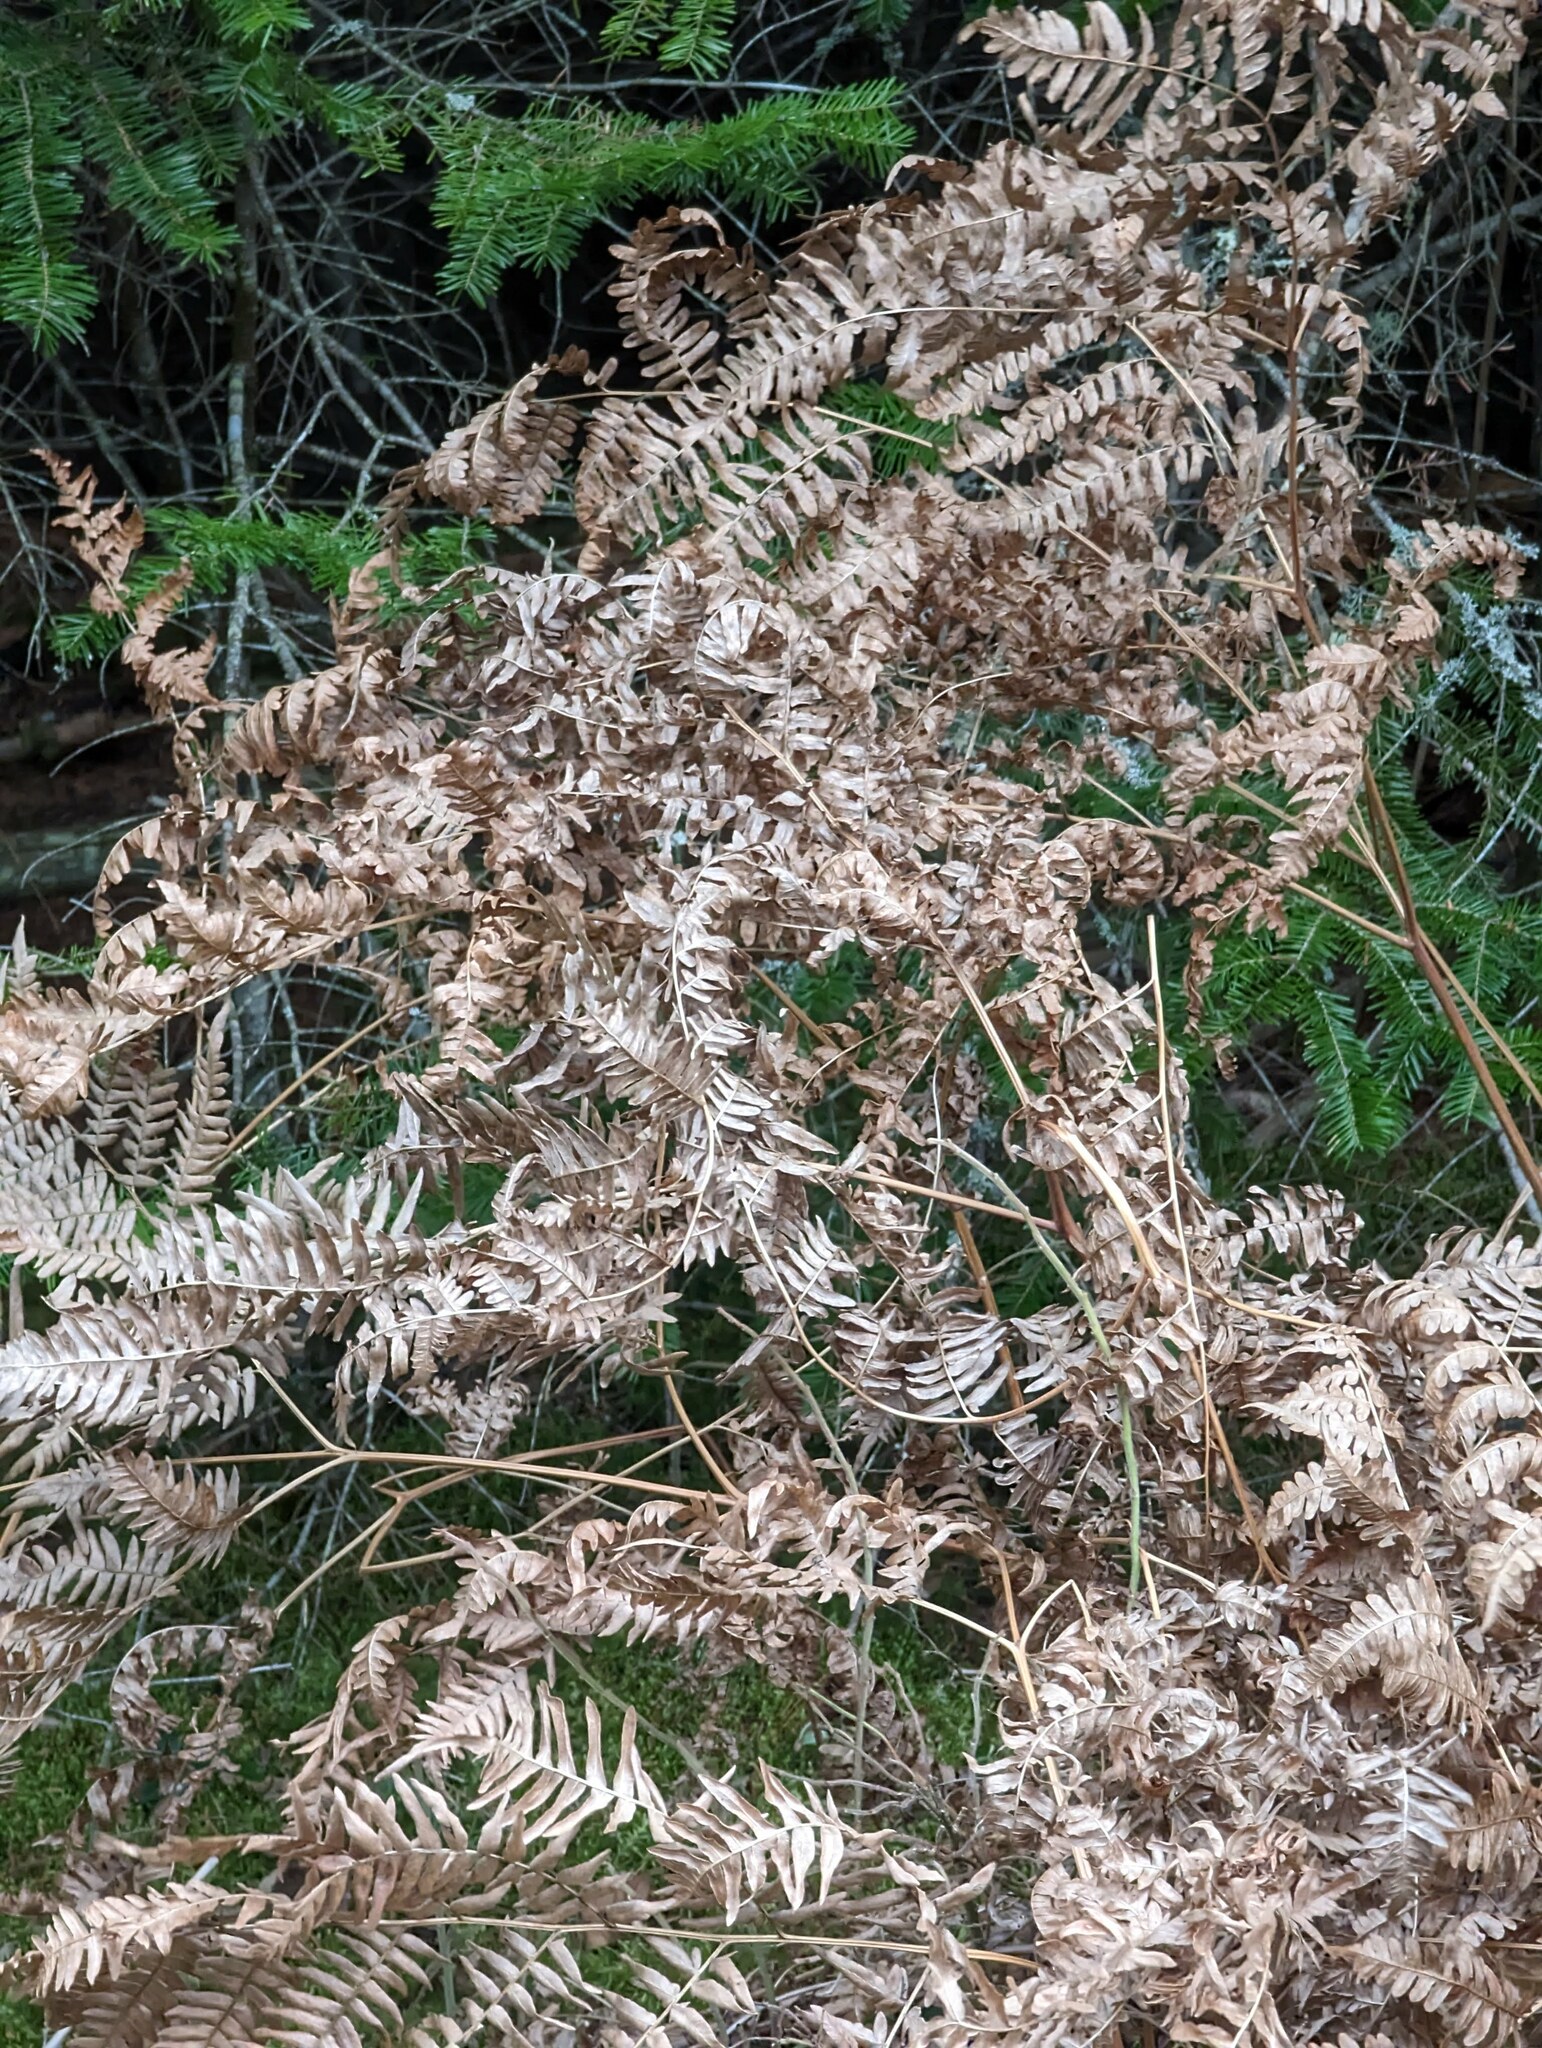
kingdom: Plantae
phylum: Tracheophyta
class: Polypodiopsida
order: Polypodiales
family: Dennstaedtiaceae
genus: Pteridium
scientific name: Pteridium aquilinum
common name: Bracken
